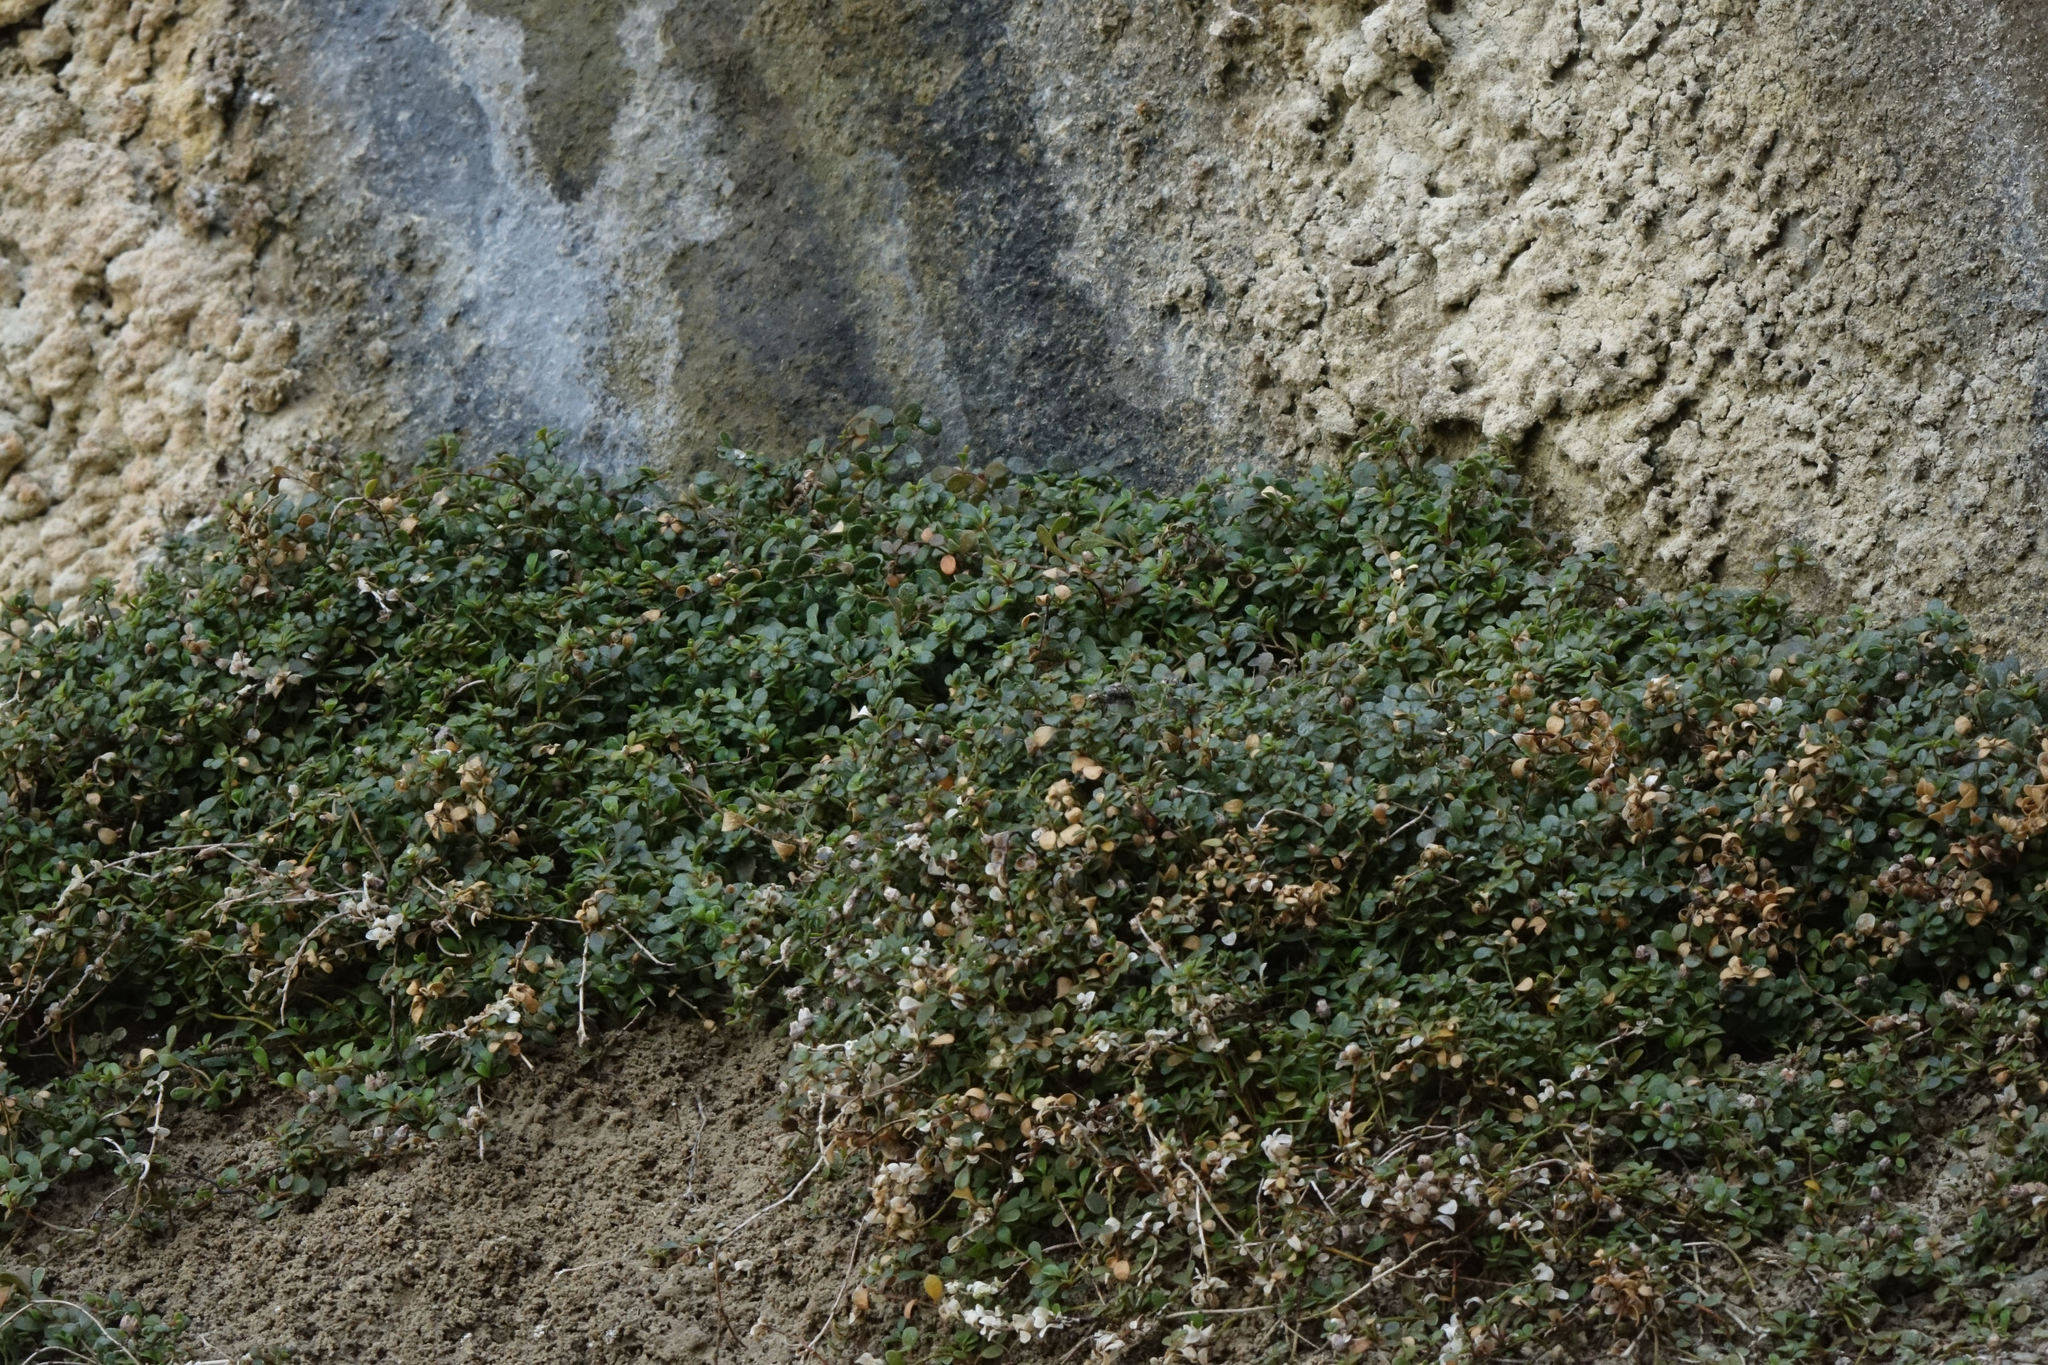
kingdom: Plantae
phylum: Tracheophyta
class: Magnoliopsida
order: Ericales
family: Primulaceae
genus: Samolus
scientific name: Samolus repens
